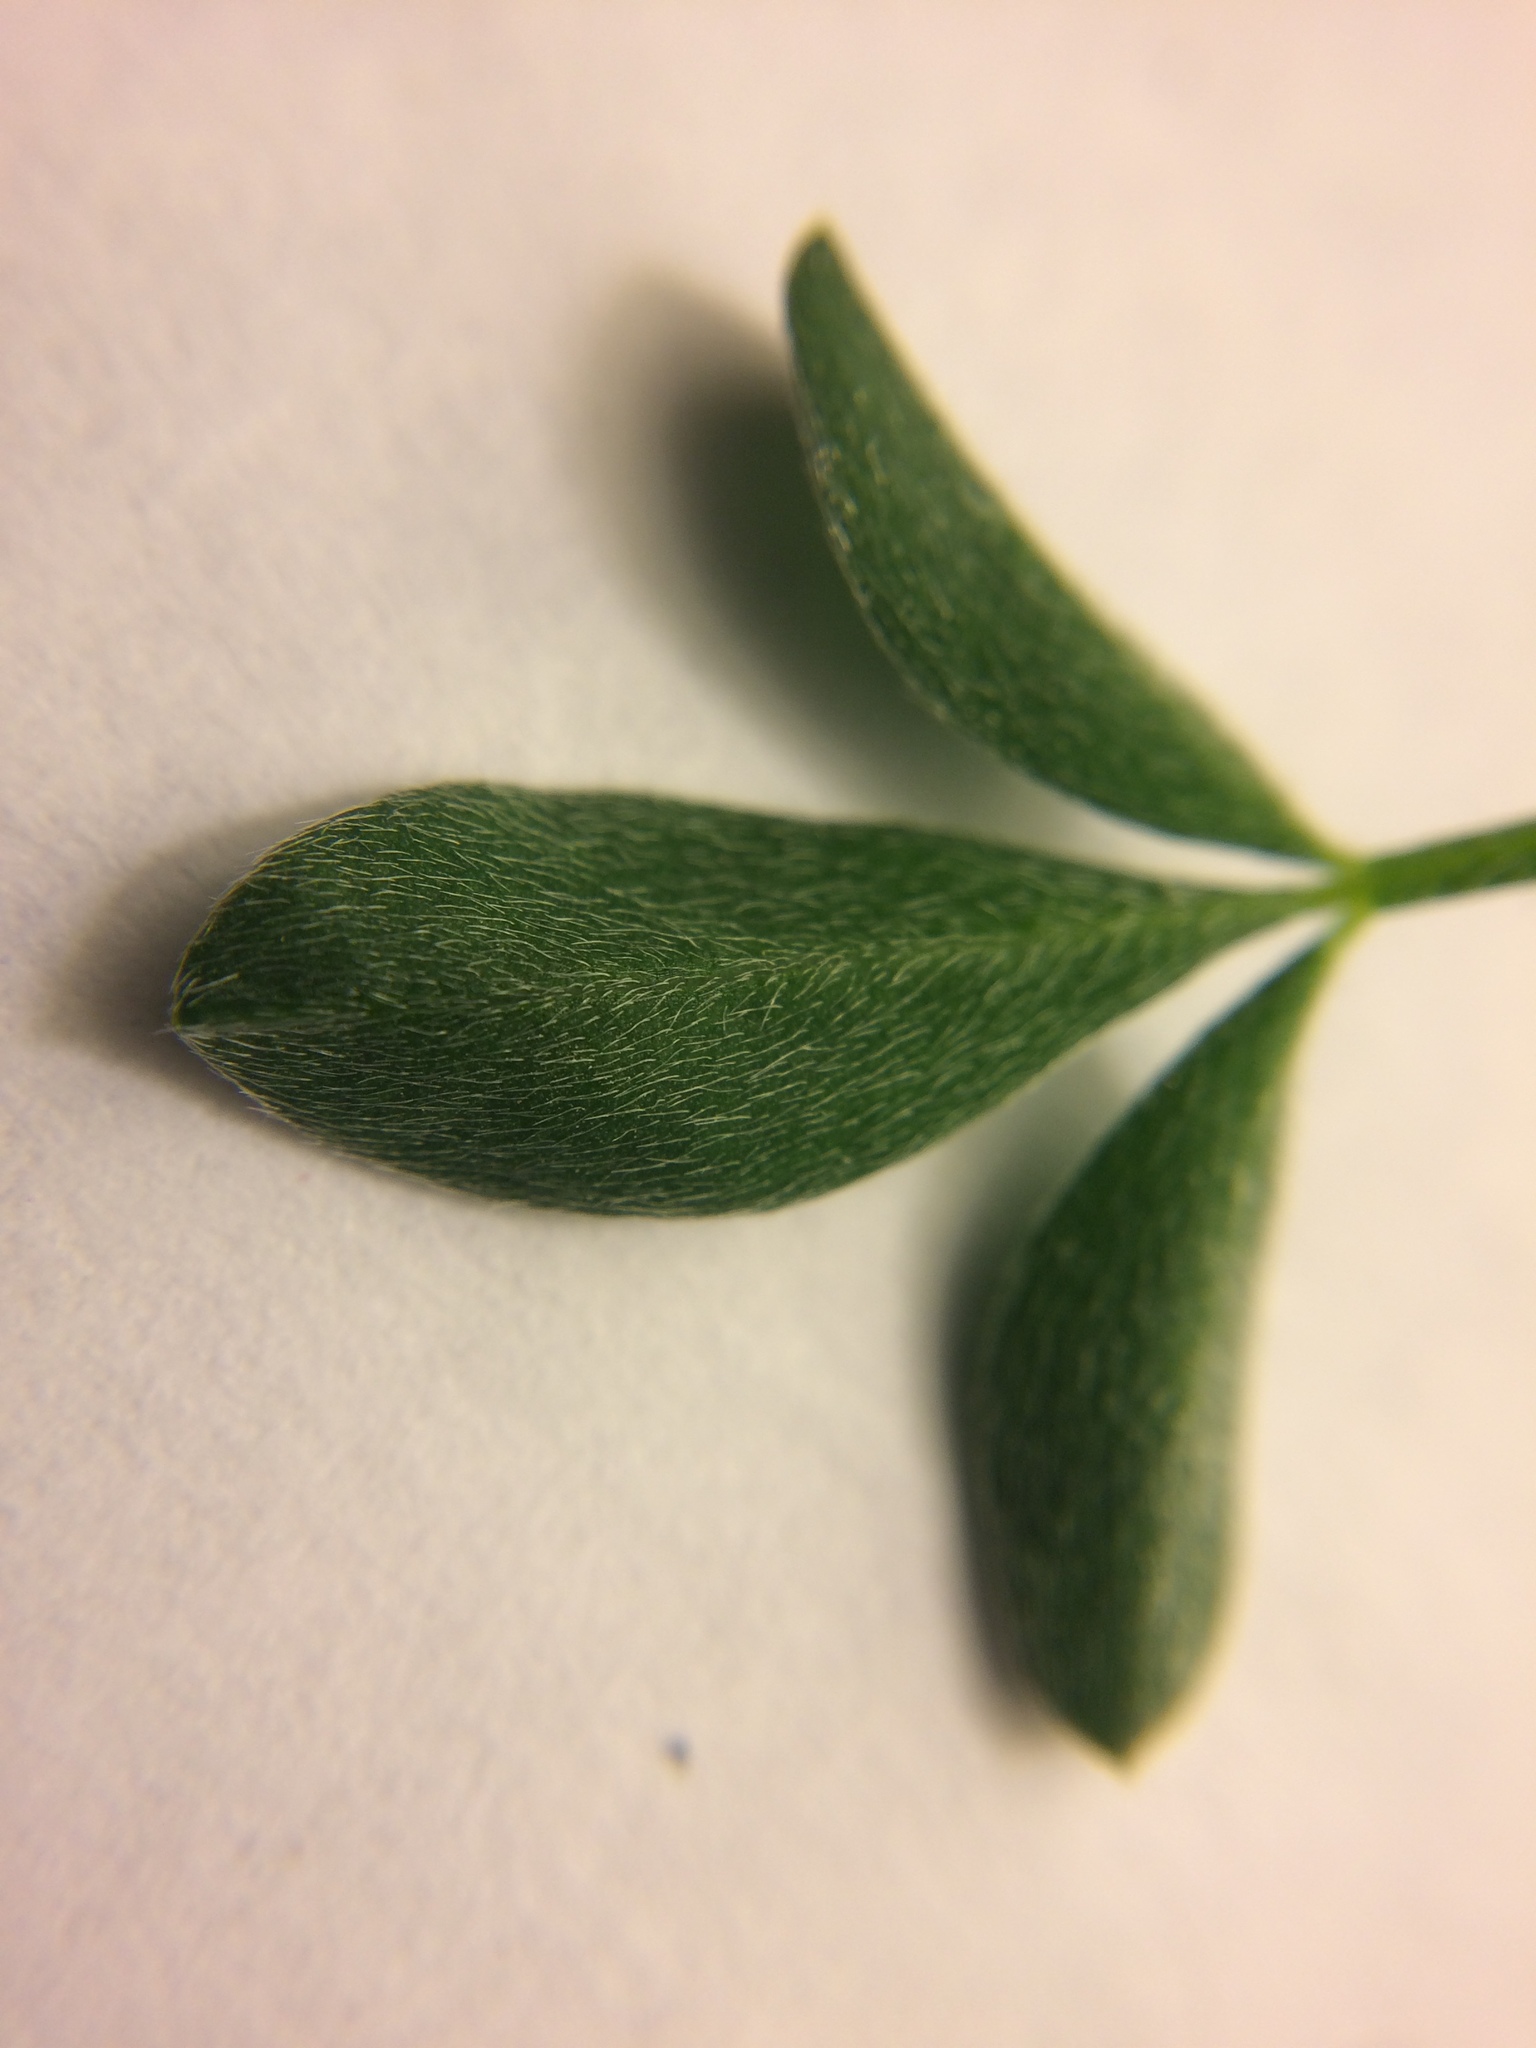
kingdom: Plantae
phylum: Tracheophyta
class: Magnoliopsida
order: Fabales
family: Fabaceae
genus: Cytisus
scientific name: Cytisus scoparius
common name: Scotch broom
